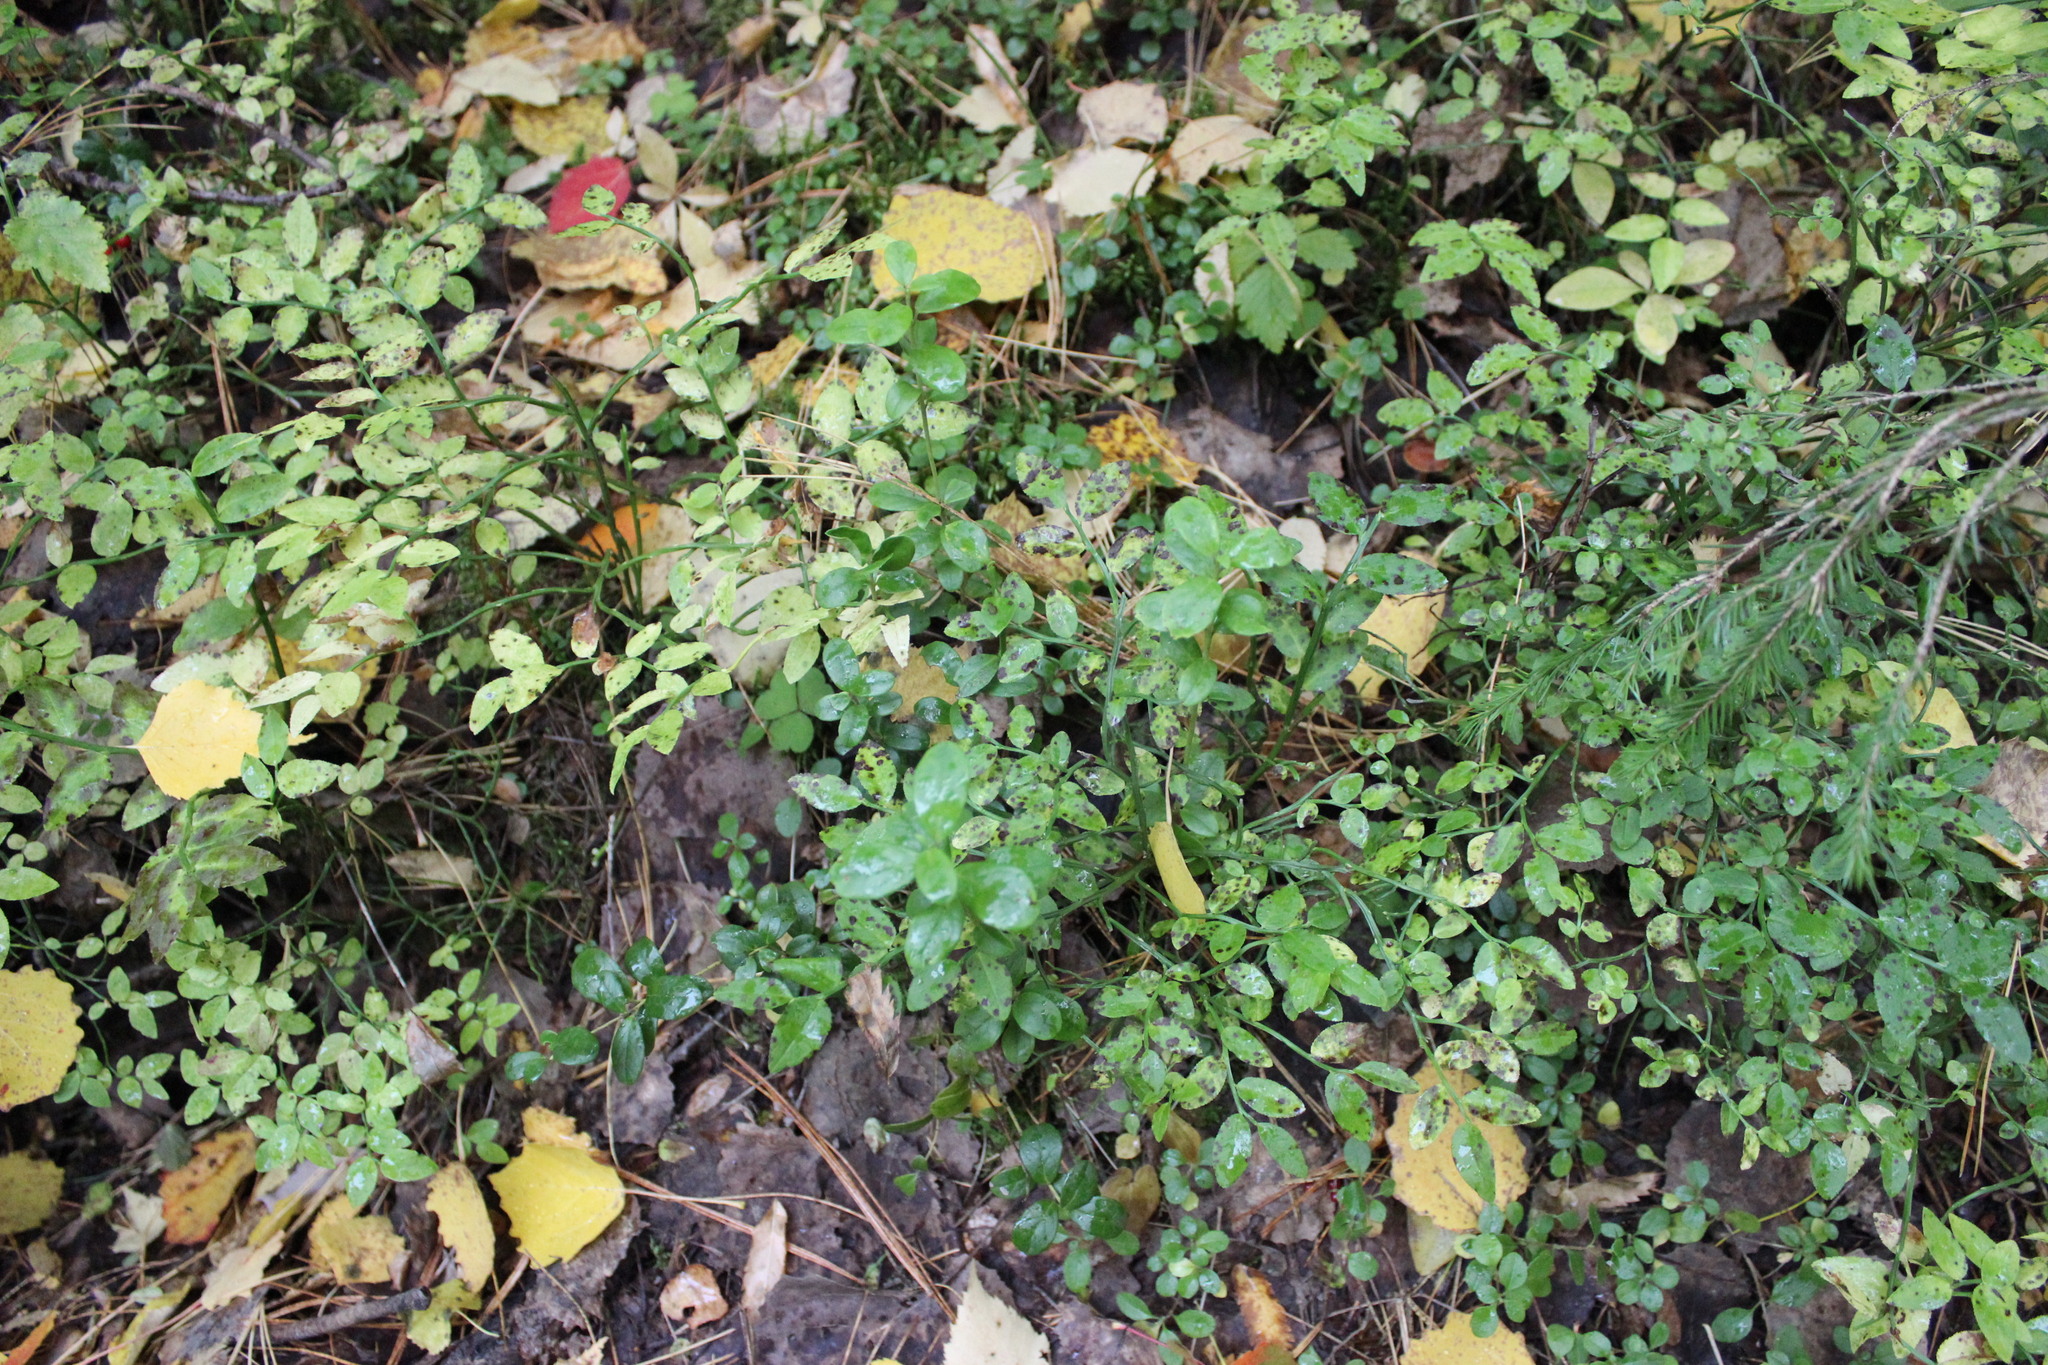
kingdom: Plantae
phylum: Tracheophyta
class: Magnoliopsida
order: Ericales
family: Ericaceae
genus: Vaccinium
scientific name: Vaccinium myrtillus
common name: Bilberry
